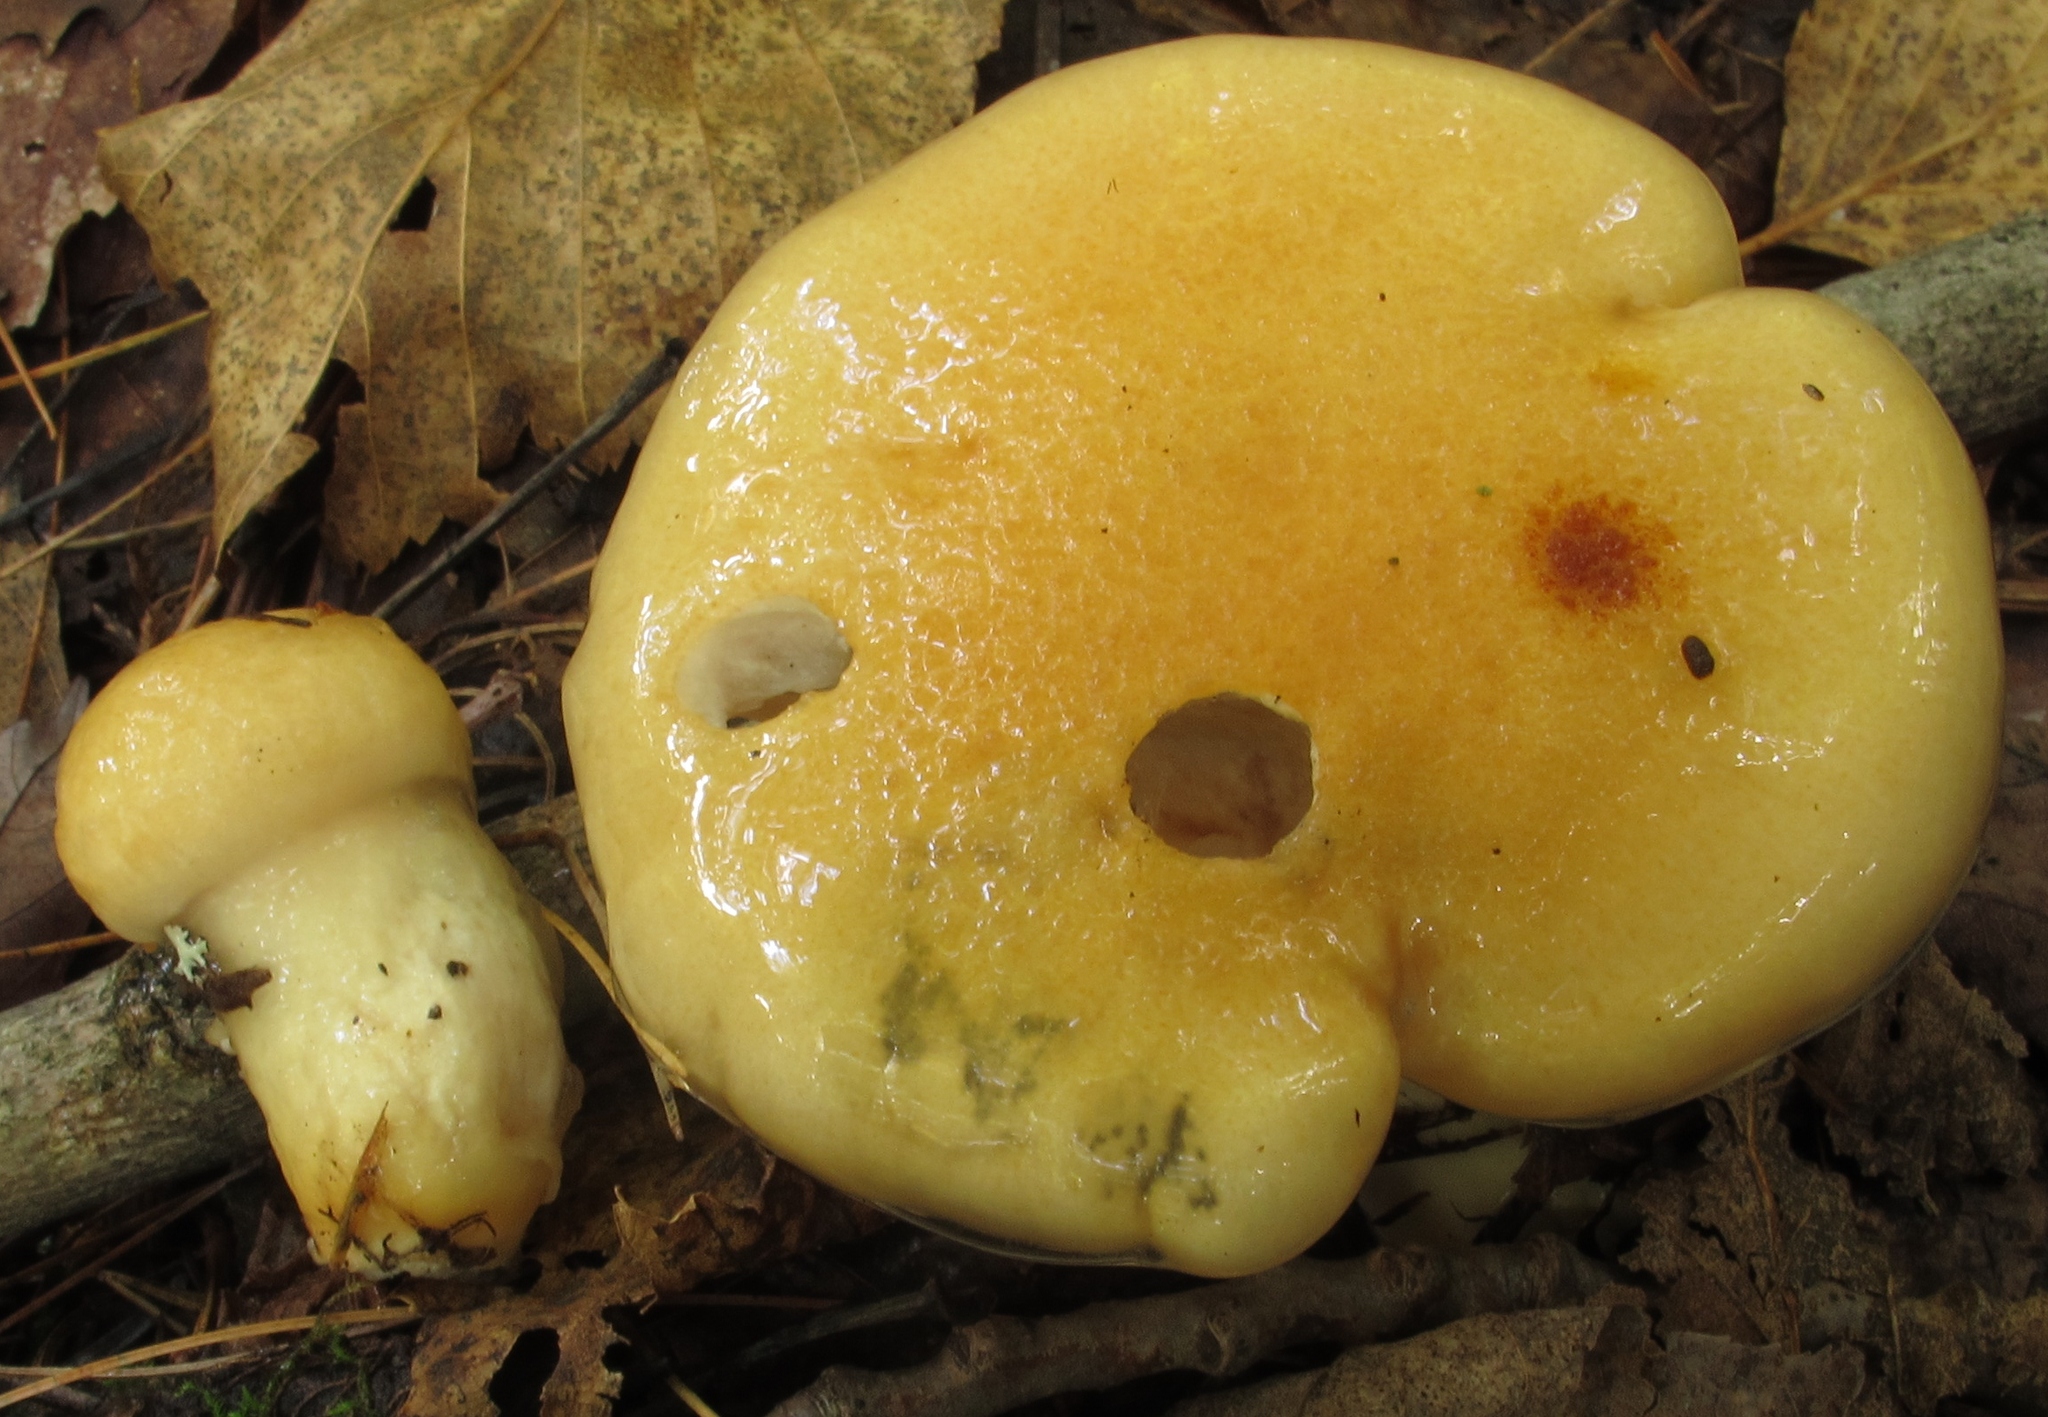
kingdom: Fungi
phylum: Basidiomycota
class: Agaricomycetes
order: Agaricales
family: Hygrophoraceae
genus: Hygrophorus
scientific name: Hygrophorus ligatus
